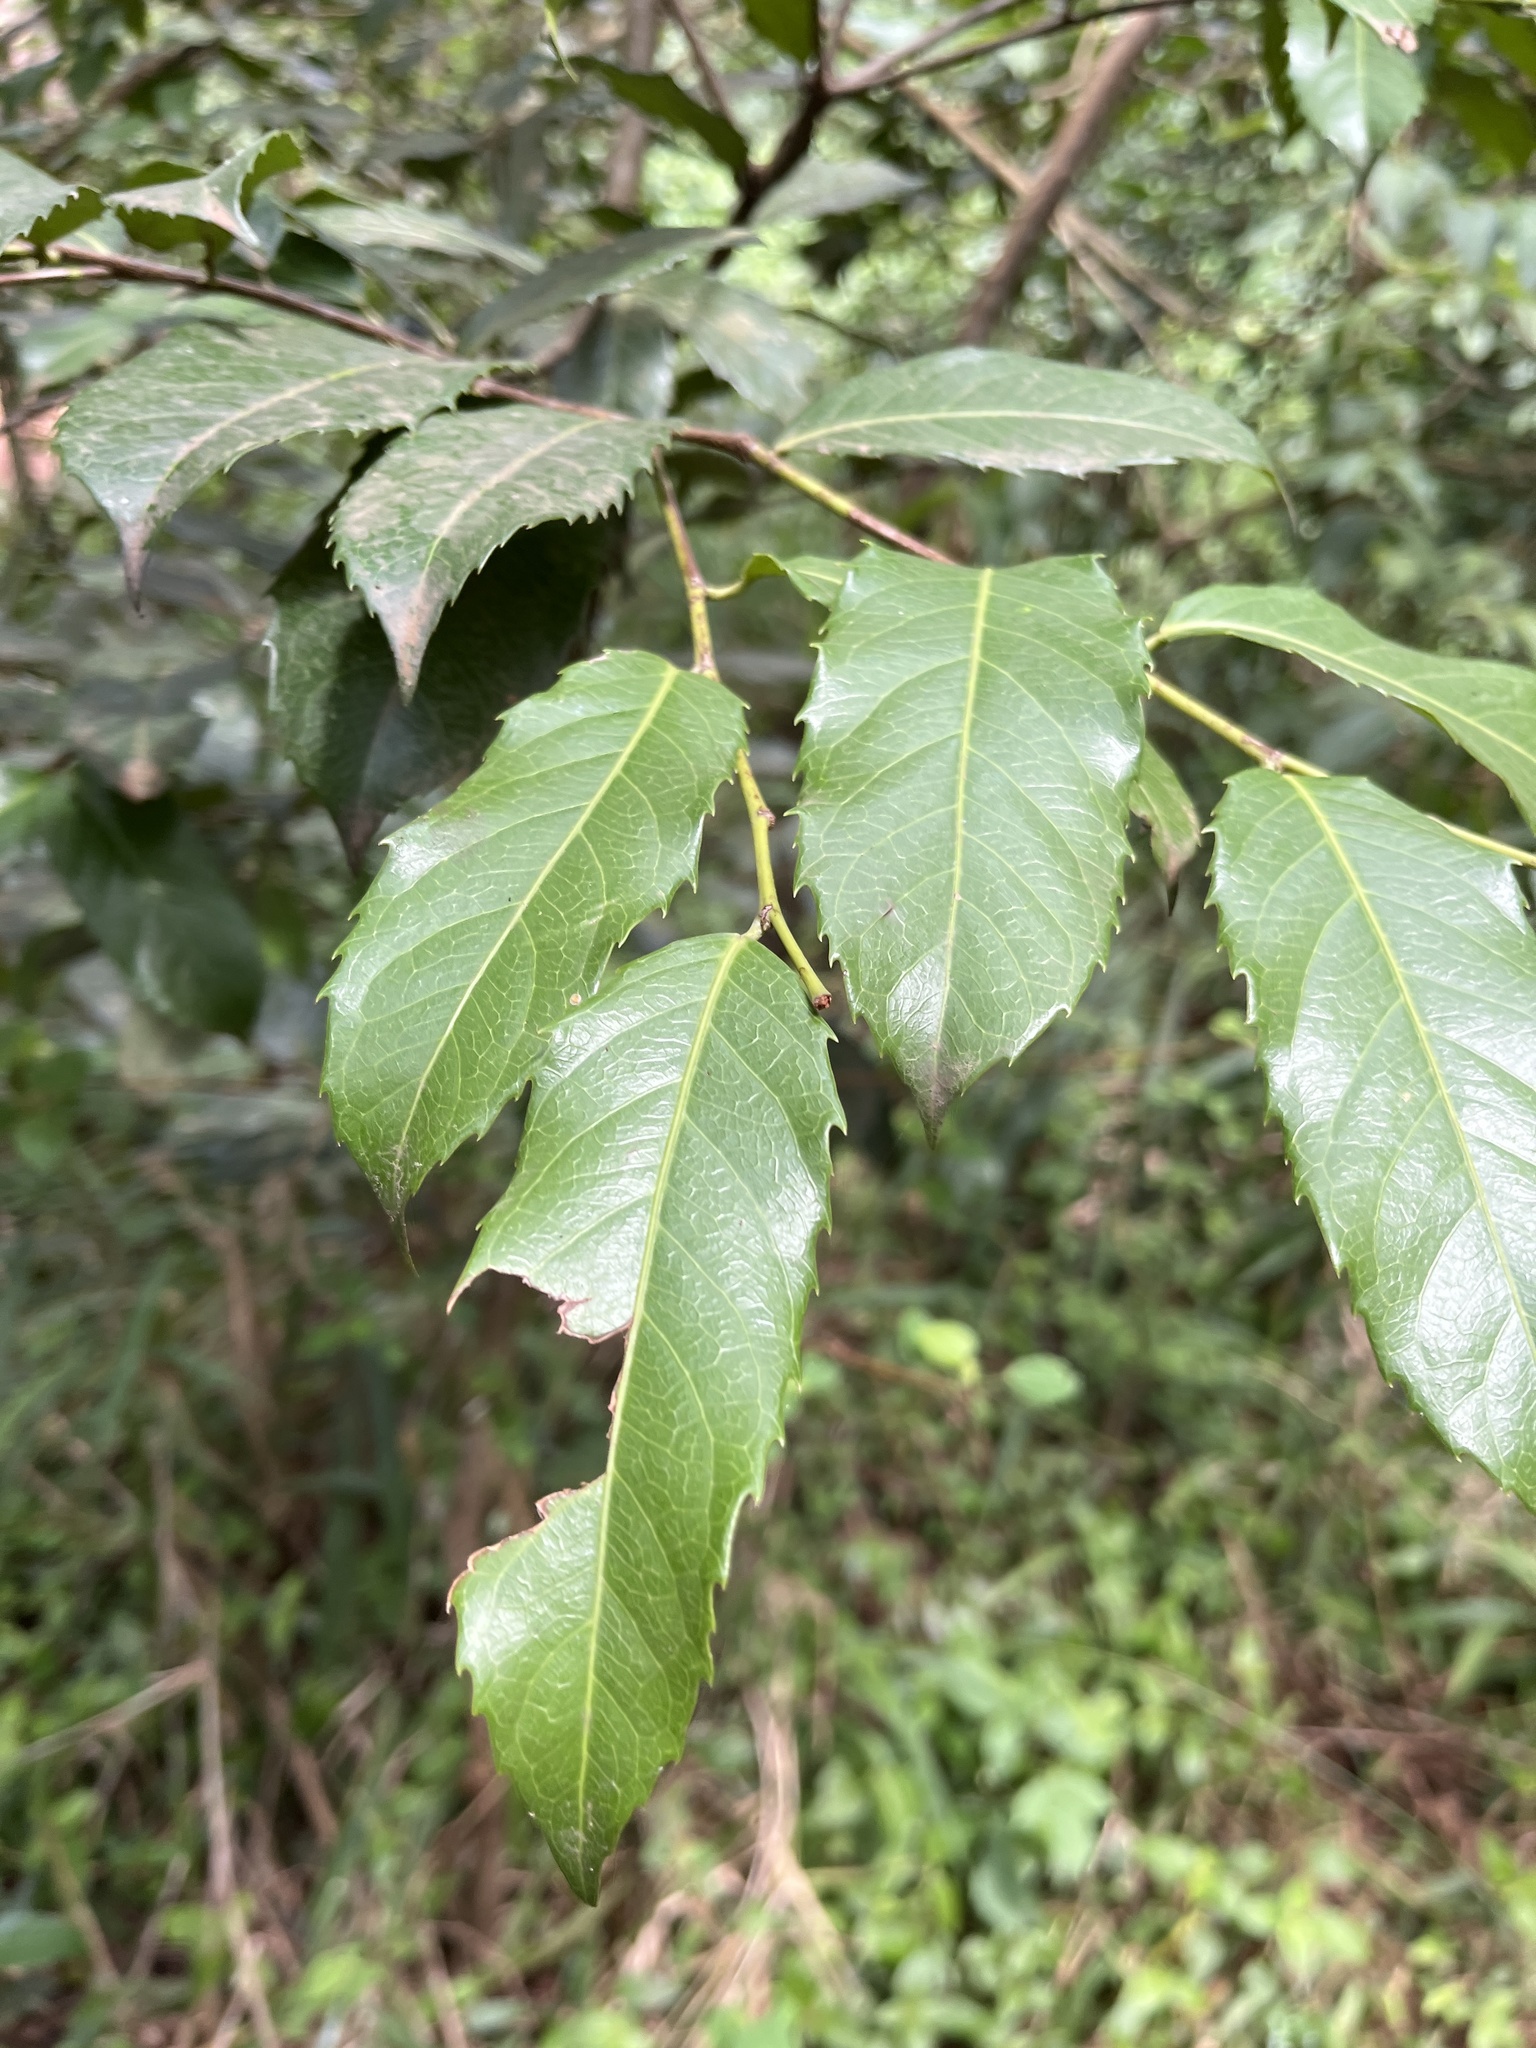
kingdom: Plantae
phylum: Tracheophyta
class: Magnoliopsida
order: Malpighiales
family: Achariaceae
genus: Rawsonia
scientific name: Rawsonia lucida
